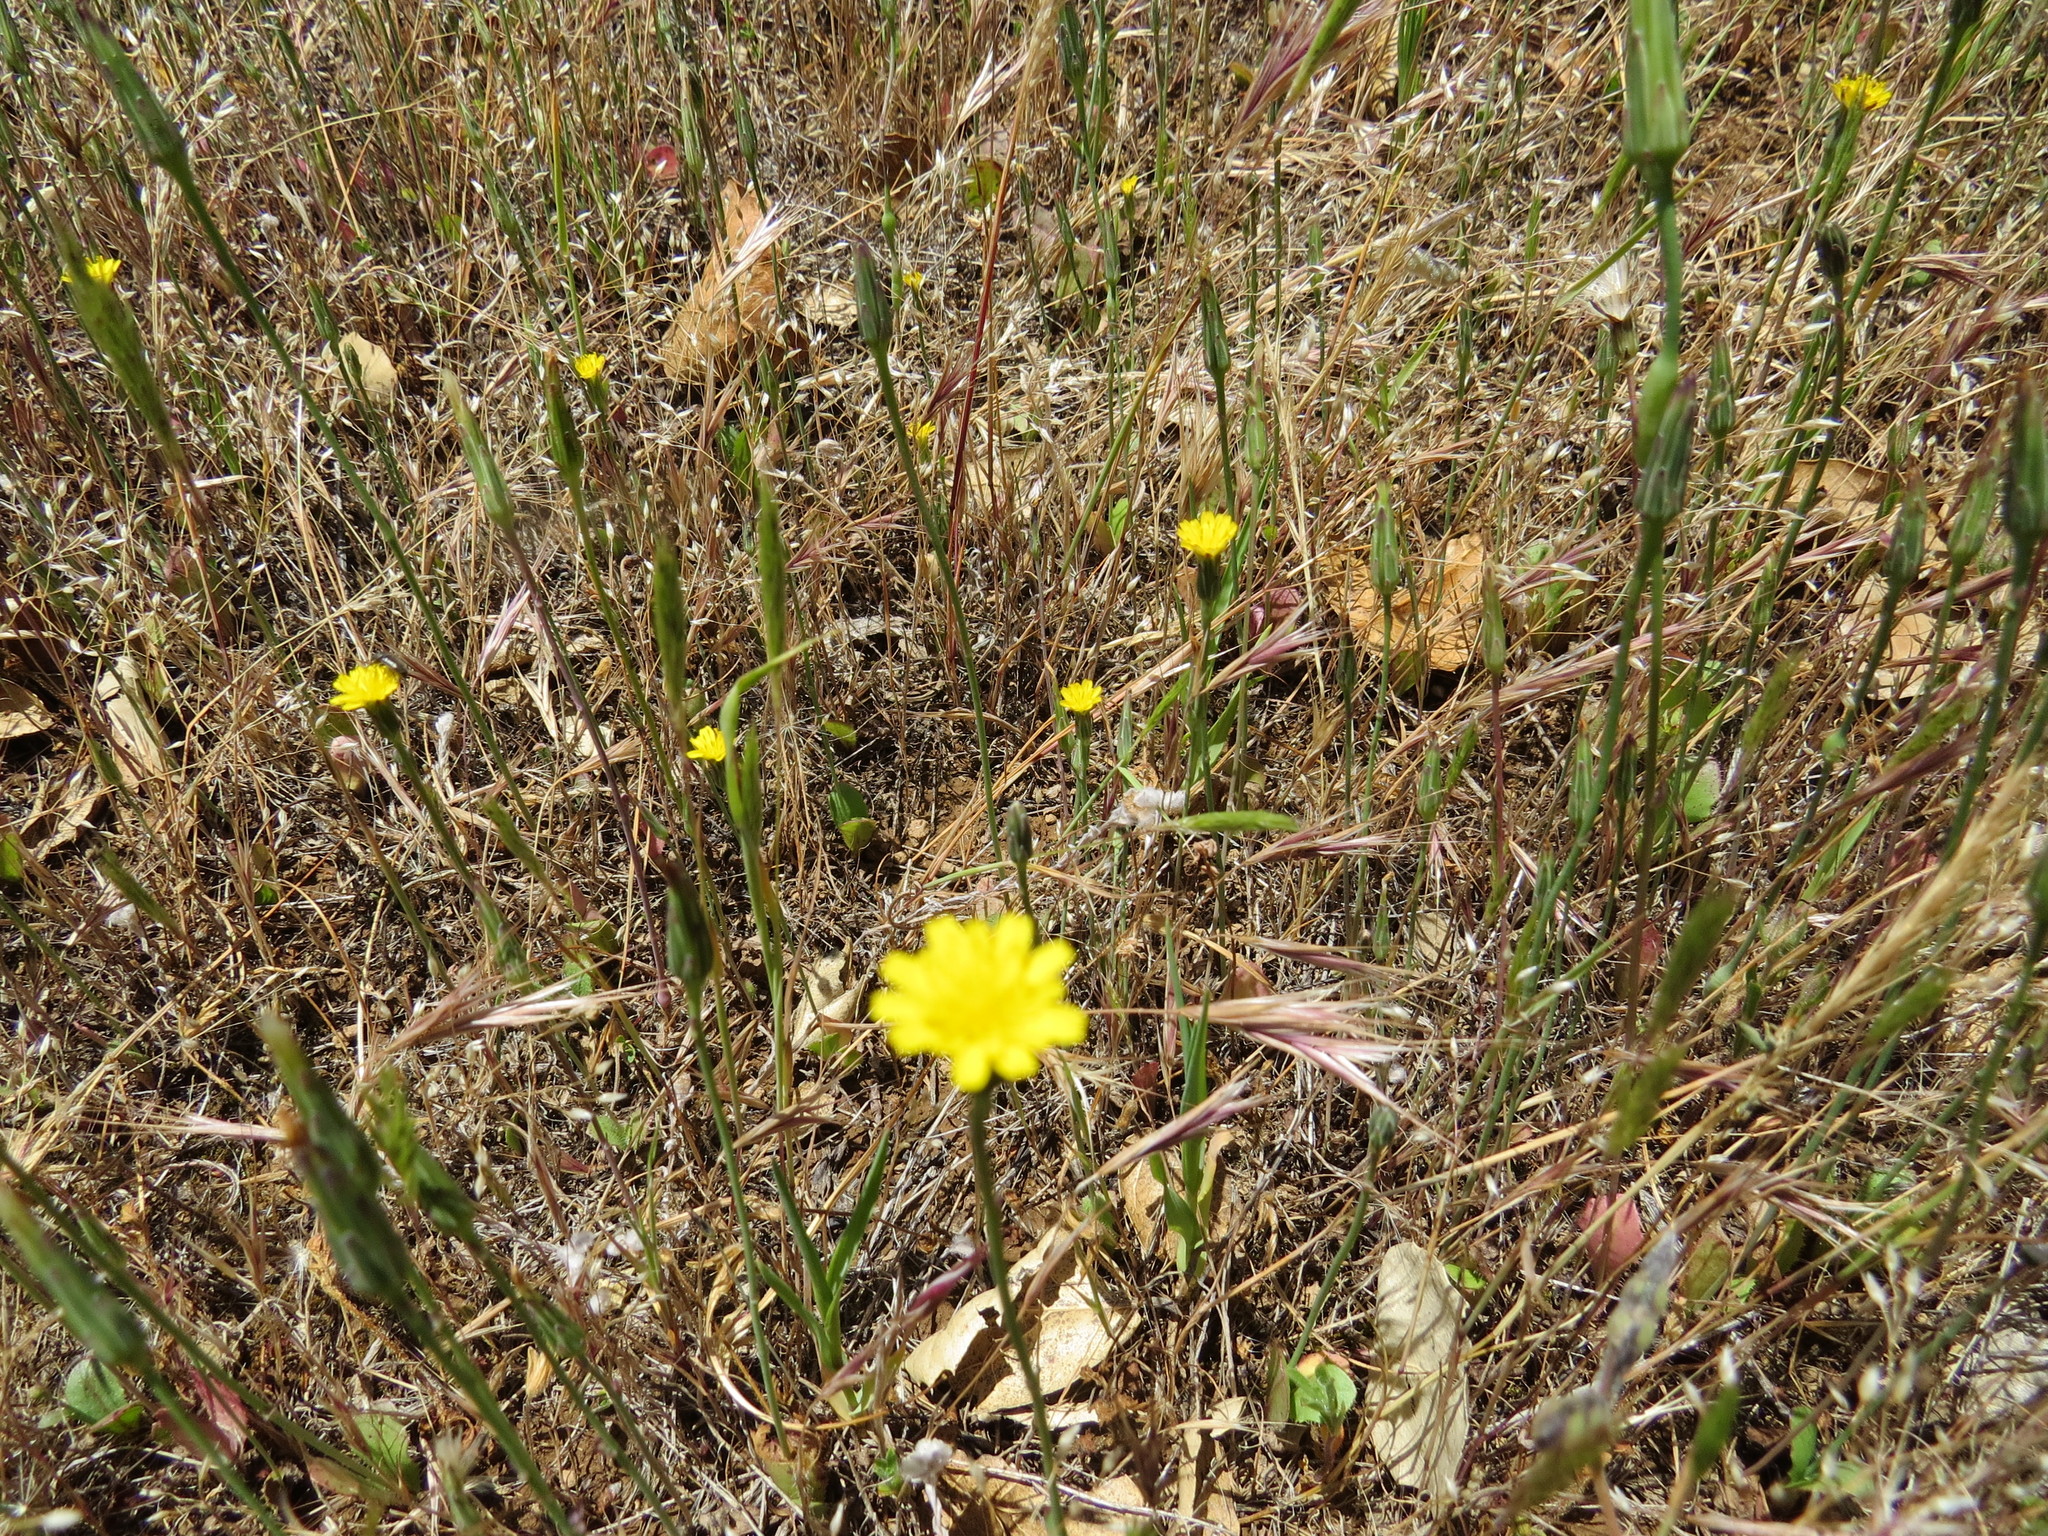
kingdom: Plantae
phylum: Tracheophyta
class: Magnoliopsida
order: Asterales
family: Asteraceae
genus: Hypochaeris
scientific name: Hypochaeris glabra
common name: Smooth catsear
